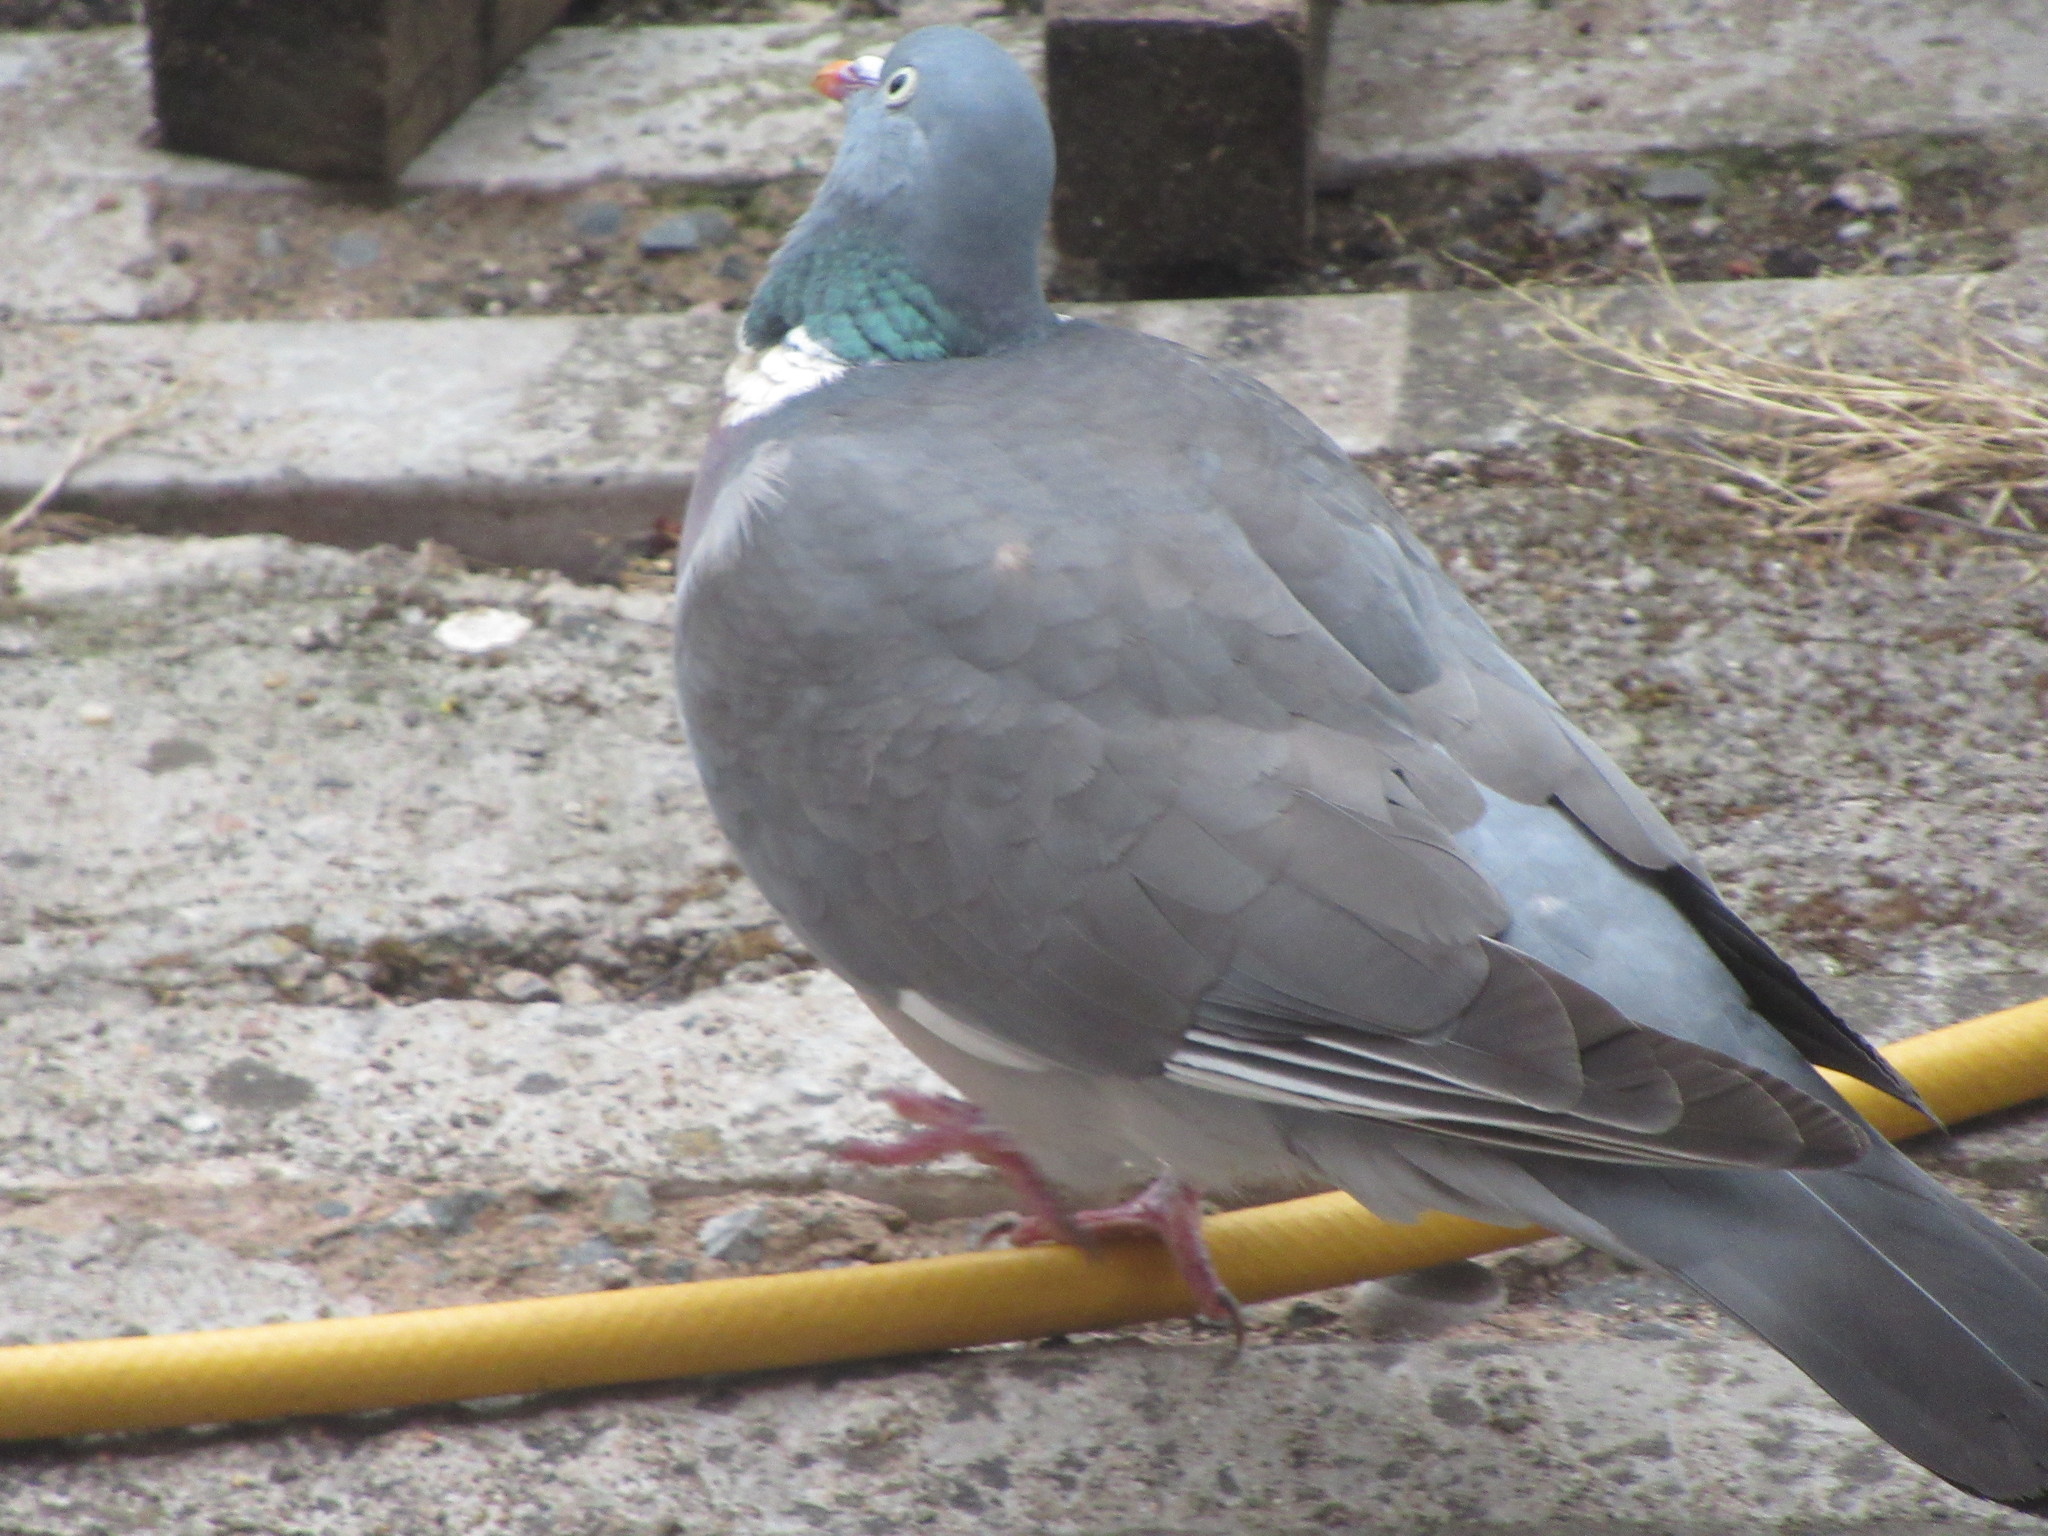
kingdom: Animalia
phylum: Chordata
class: Aves
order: Columbiformes
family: Columbidae
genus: Columba
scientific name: Columba palumbus
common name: Common wood pigeon
